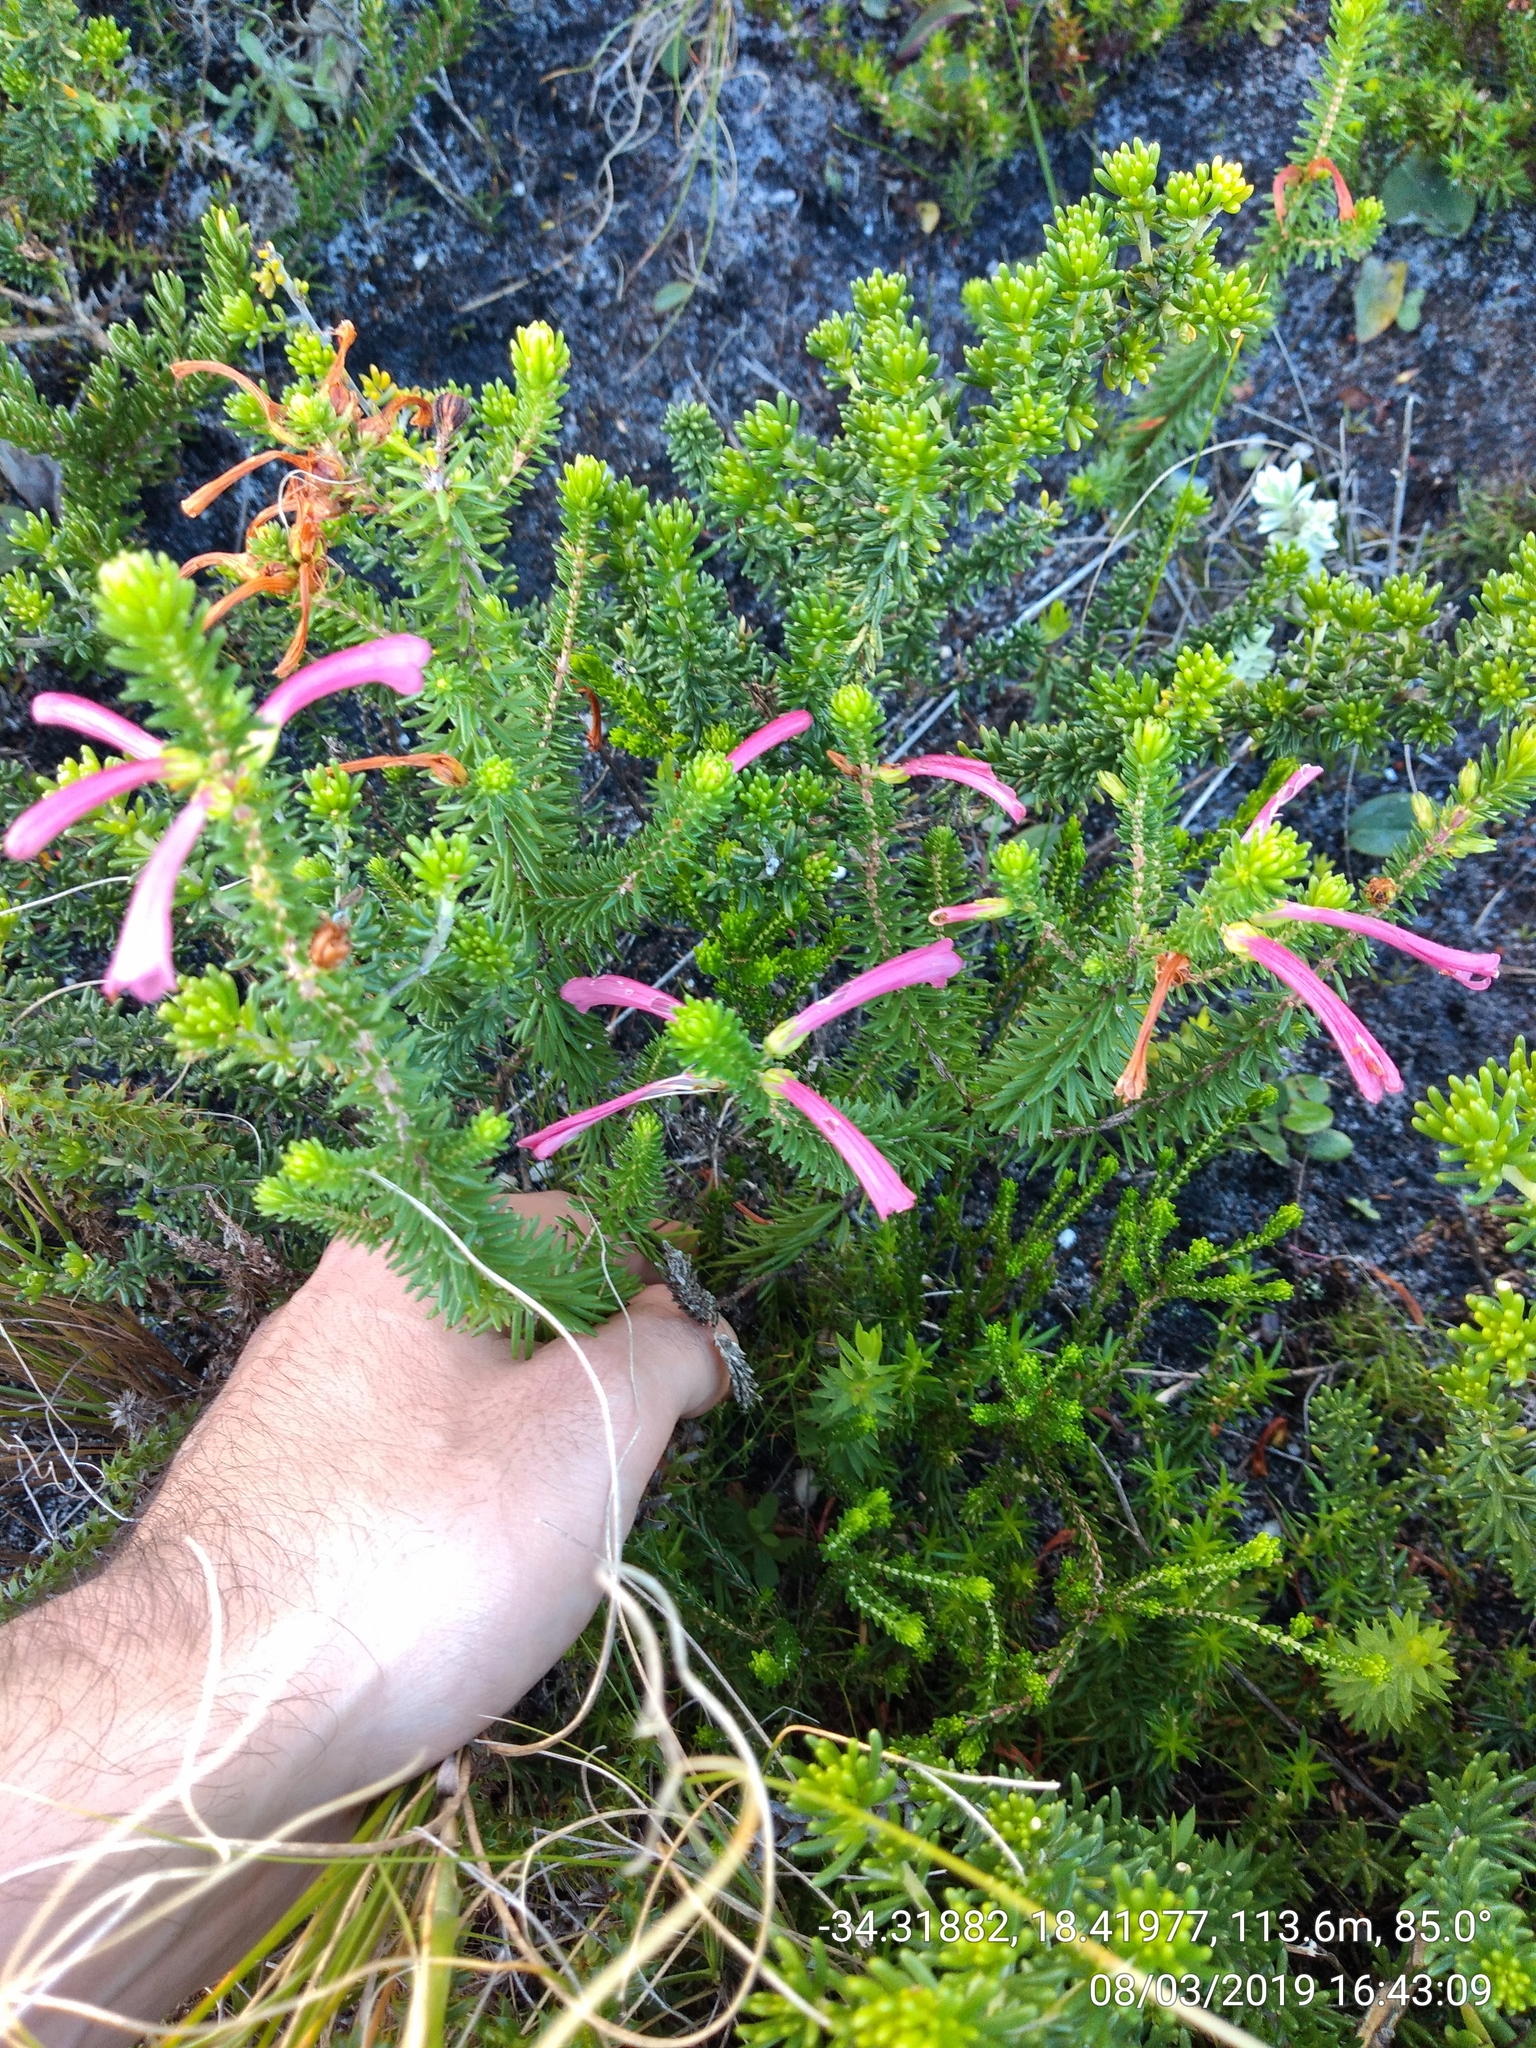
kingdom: Plantae
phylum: Tracheophyta
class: Magnoliopsida
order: Ericales
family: Ericaceae
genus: Erica
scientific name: Erica abietina
